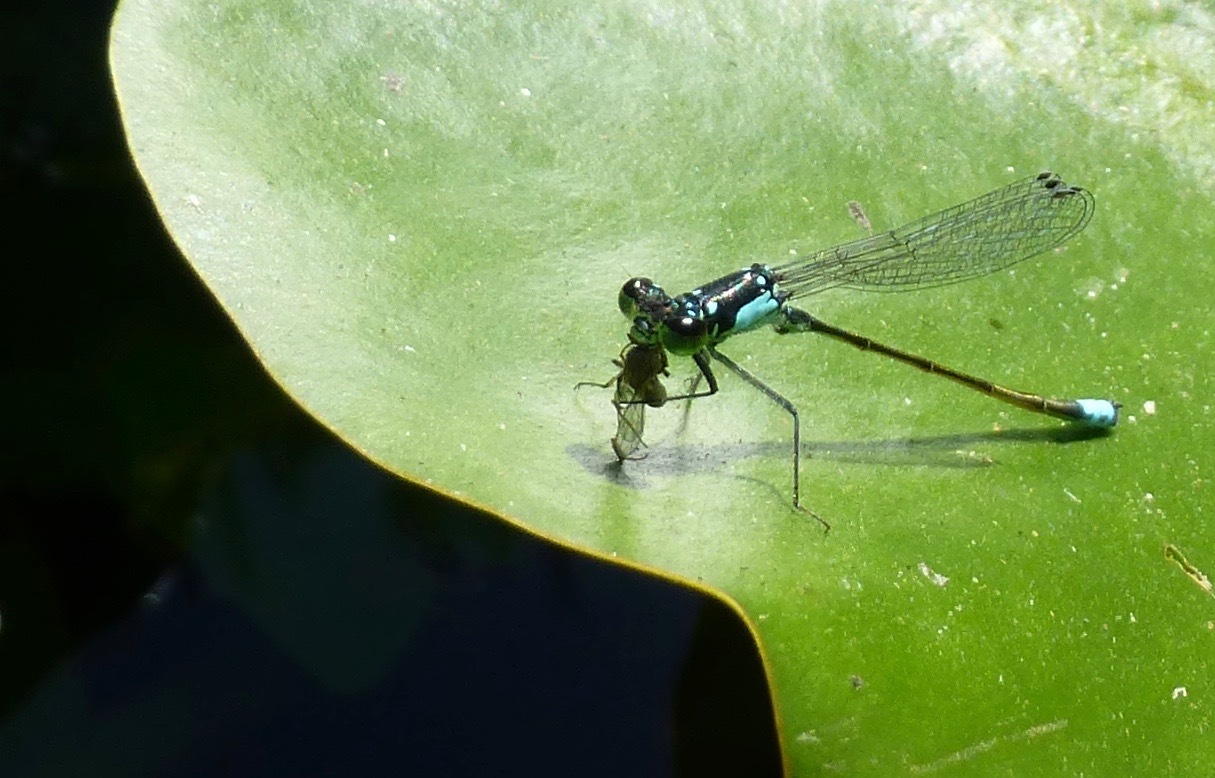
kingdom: Animalia
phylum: Arthropoda
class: Insecta
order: Odonata
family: Coenagrionidae
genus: Ischnura
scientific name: Ischnura cervula
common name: Pacific forktail
